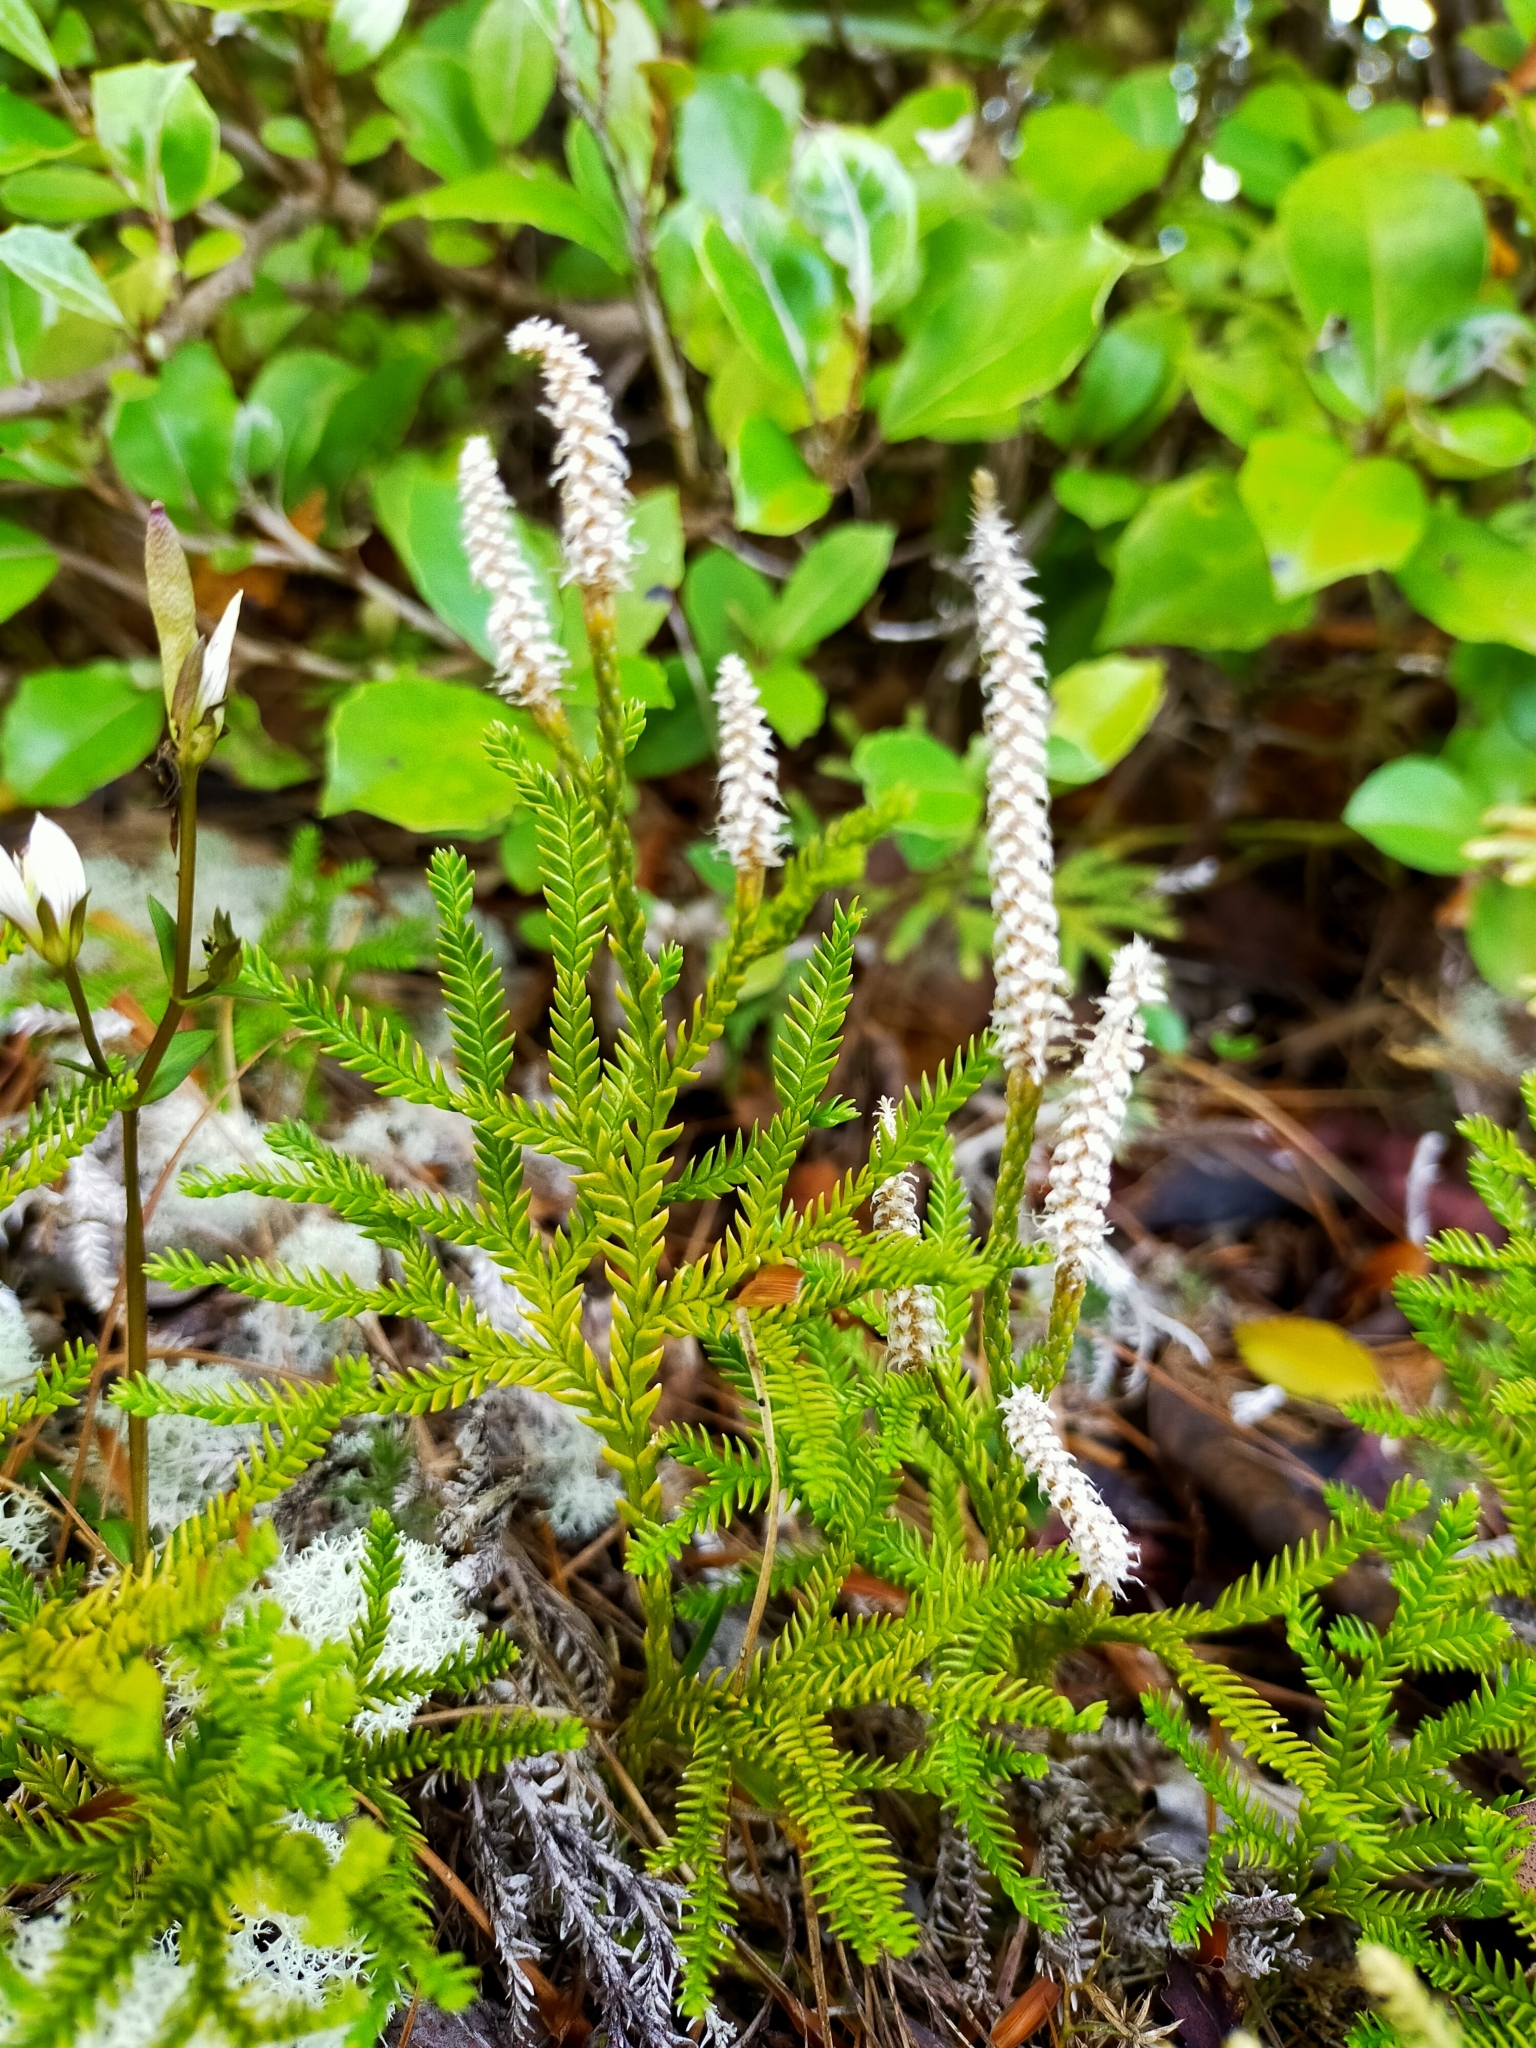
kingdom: Plantae
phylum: Tracheophyta
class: Lycopodiopsida
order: Lycopodiales
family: Lycopodiaceae
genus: Diphasium
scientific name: Diphasium scariosum
